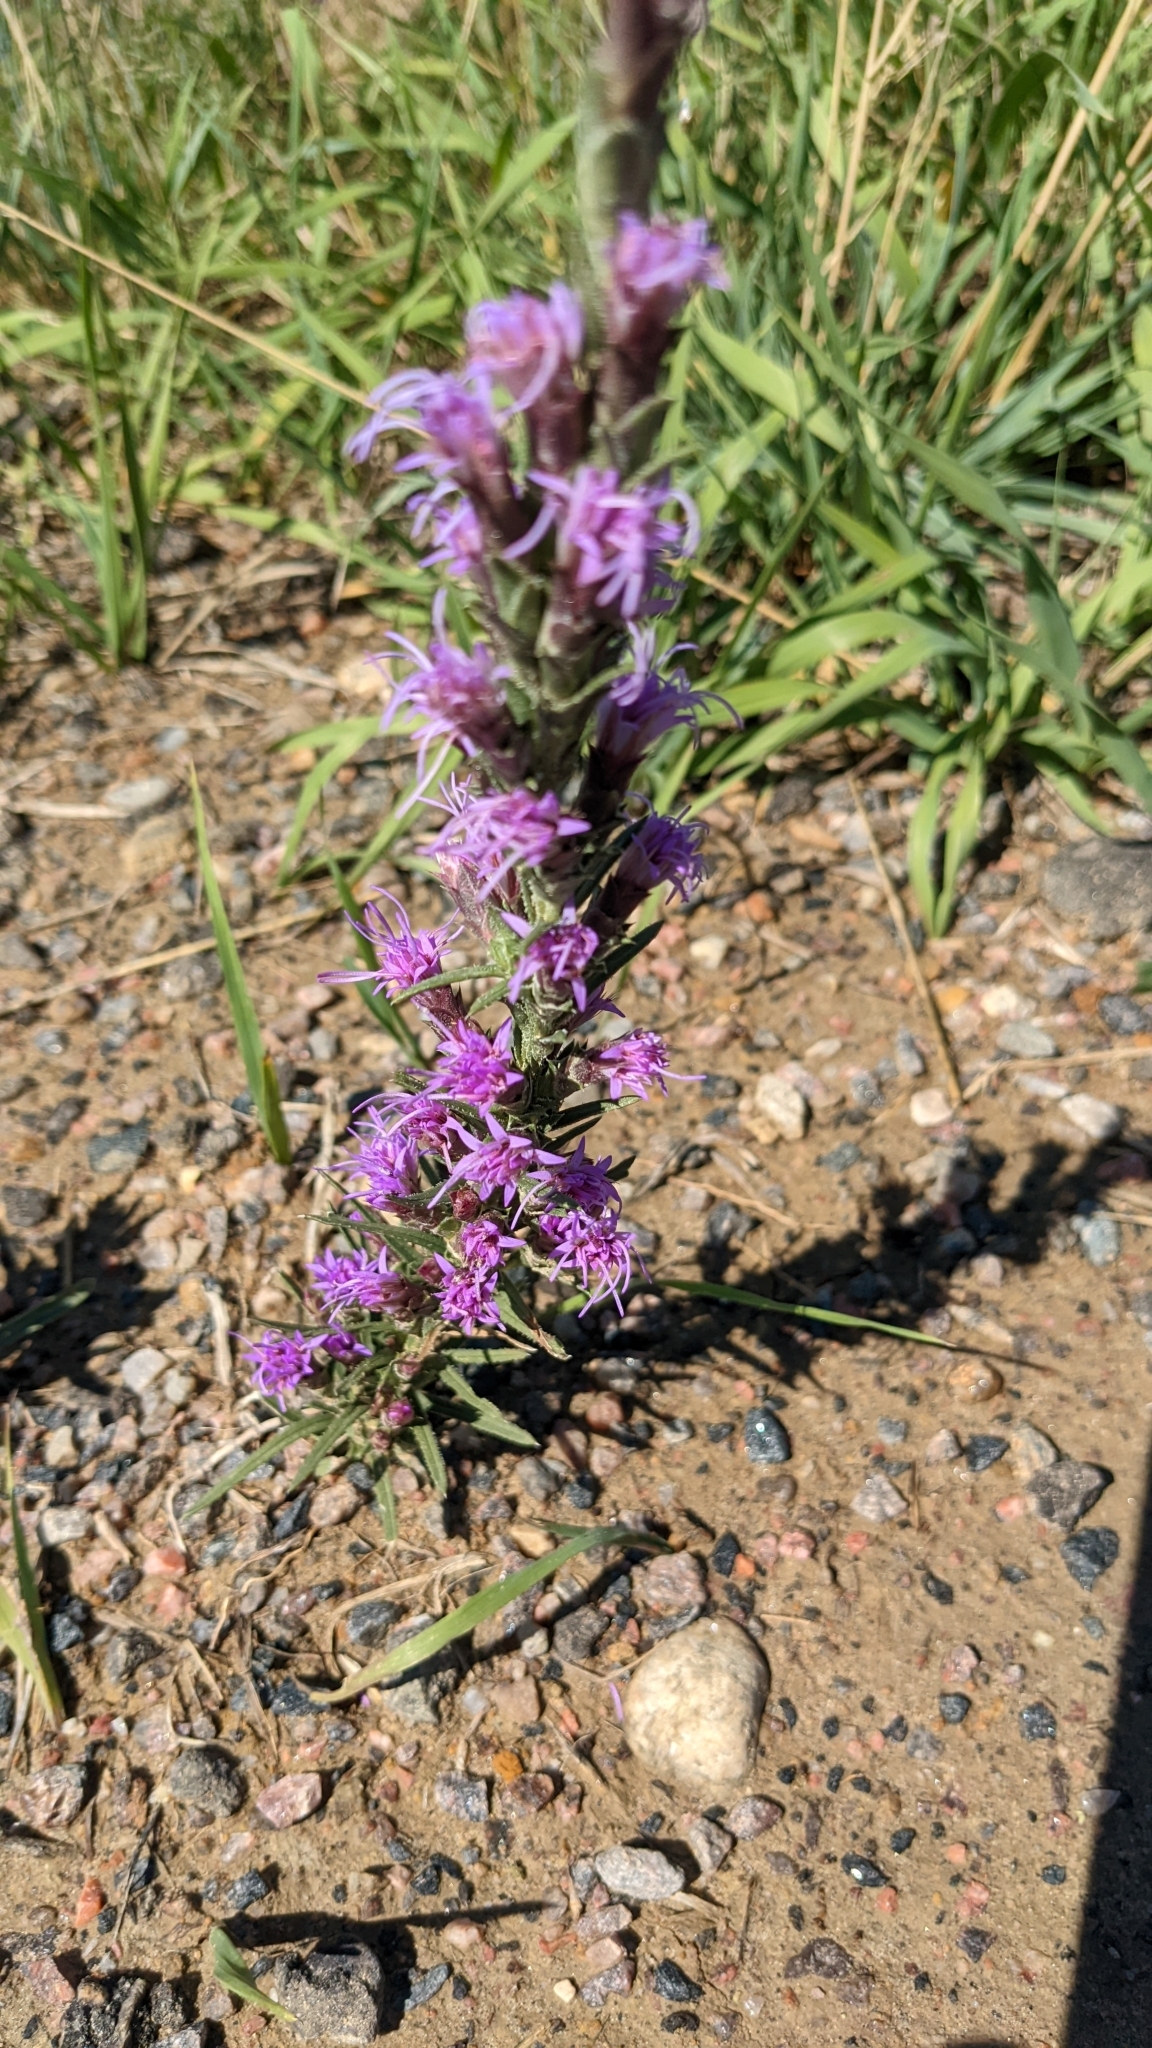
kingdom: Plantae
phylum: Tracheophyta
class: Magnoliopsida
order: Asterales
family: Asteraceae
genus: Liatris
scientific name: Liatris punctata
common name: Dotted gayfeather
